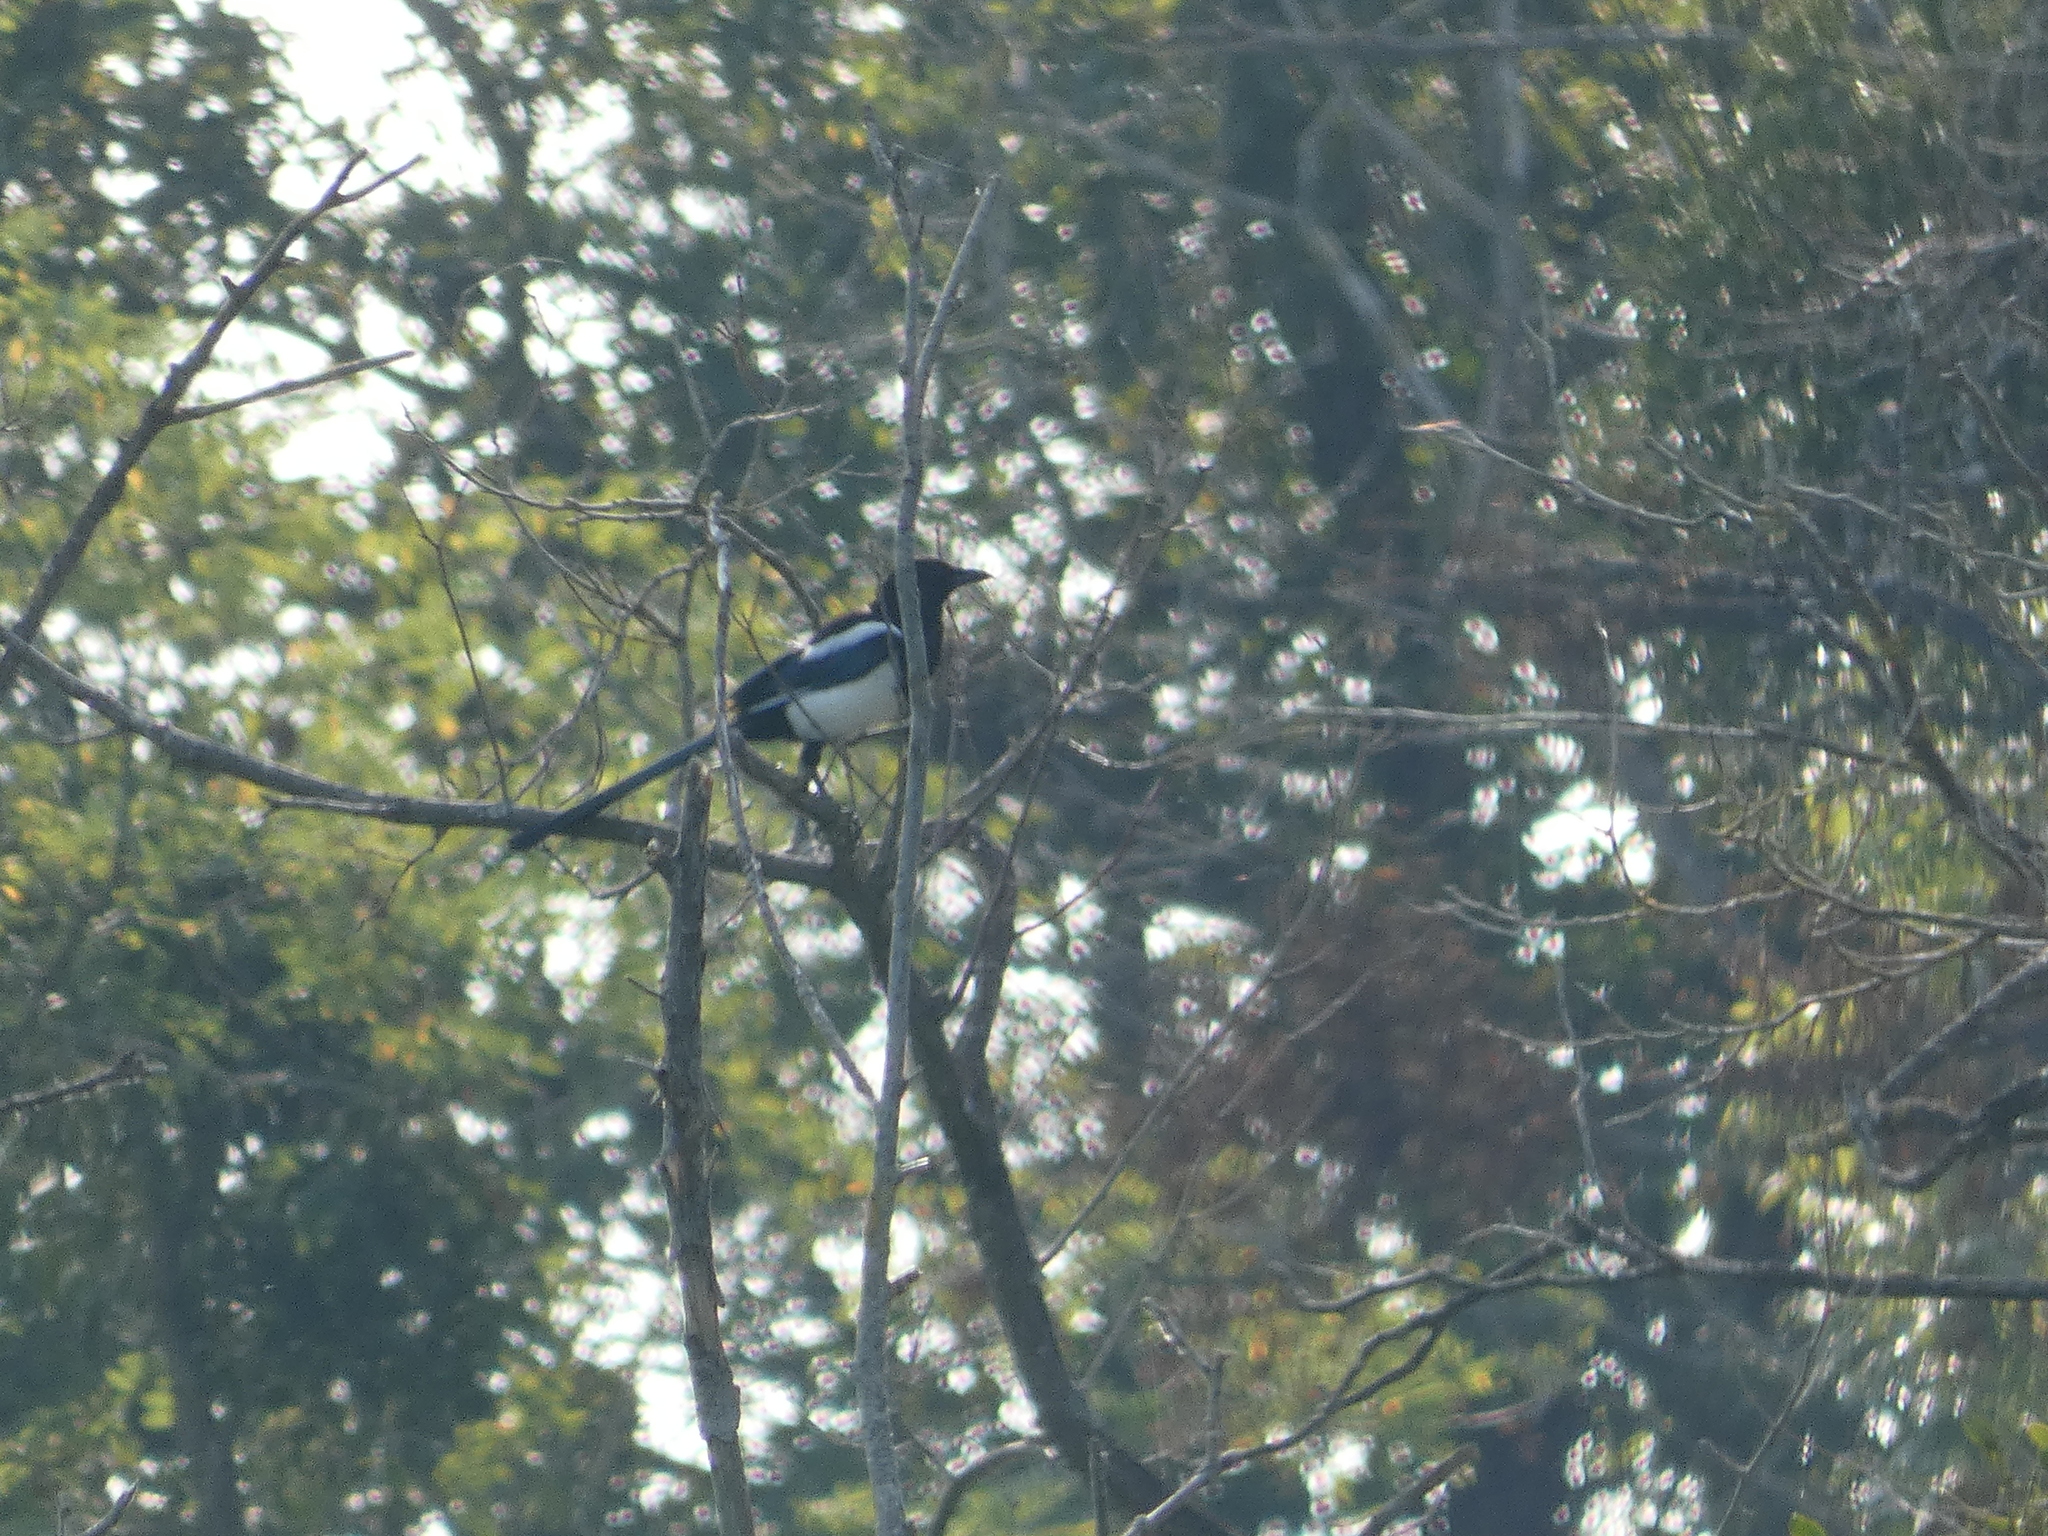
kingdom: Animalia
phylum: Chordata
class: Aves
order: Passeriformes
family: Corvidae
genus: Pica
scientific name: Pica pica
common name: Eurasian magpie
